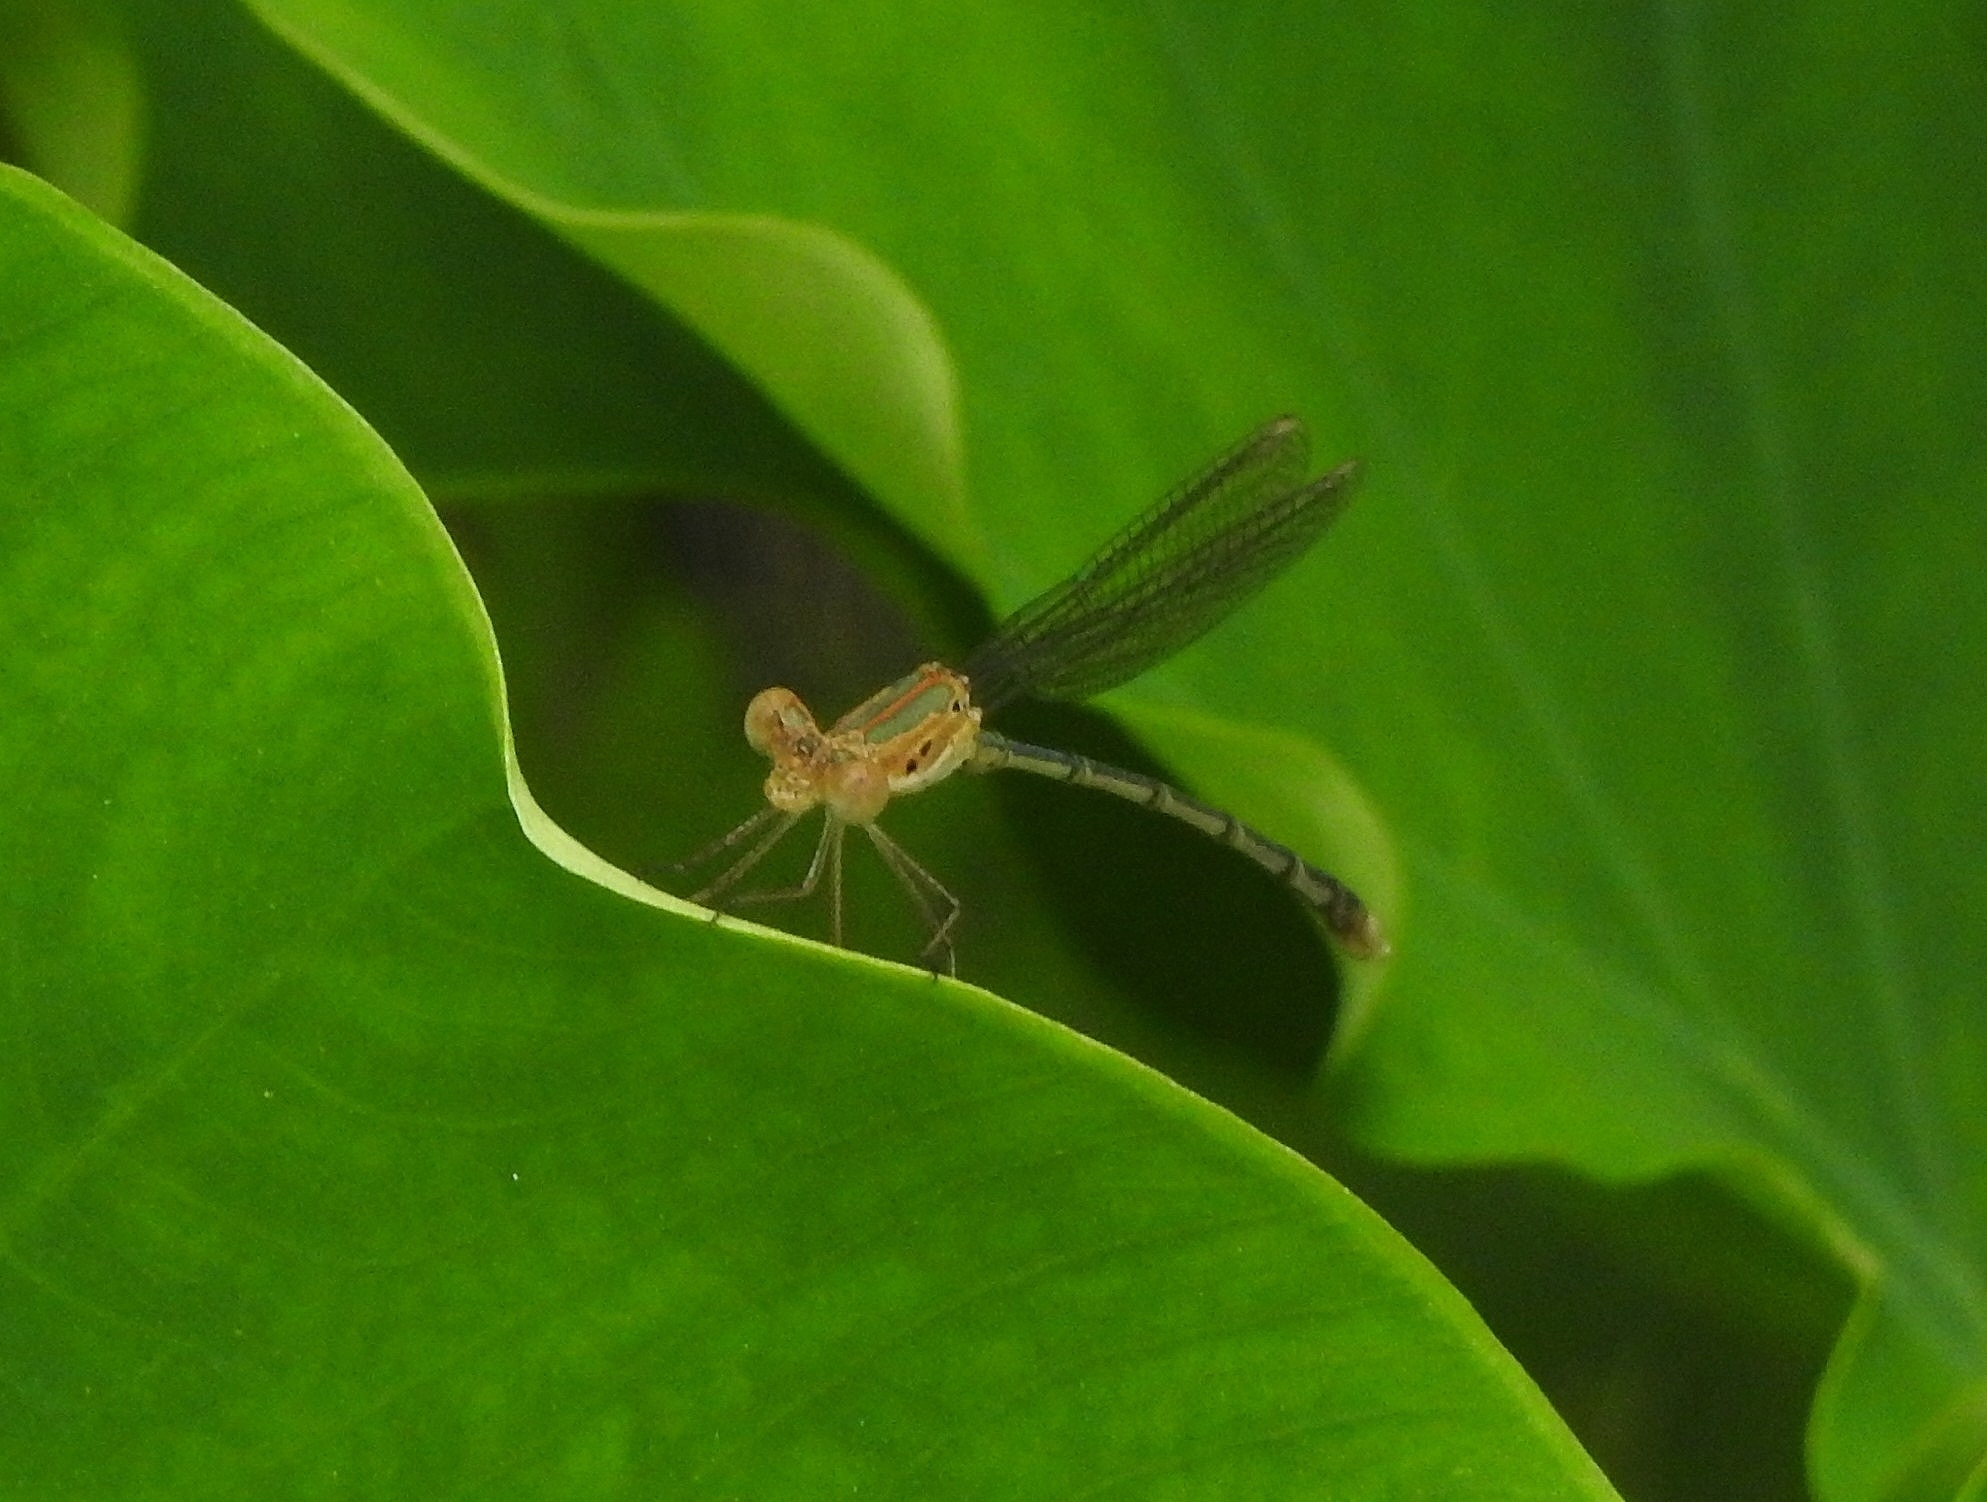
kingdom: Animalia
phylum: Arthropoda
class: Insecta
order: Odonata
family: Lestidae
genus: Lestes
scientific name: Lestes elatus
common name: Emerald spreadwing
